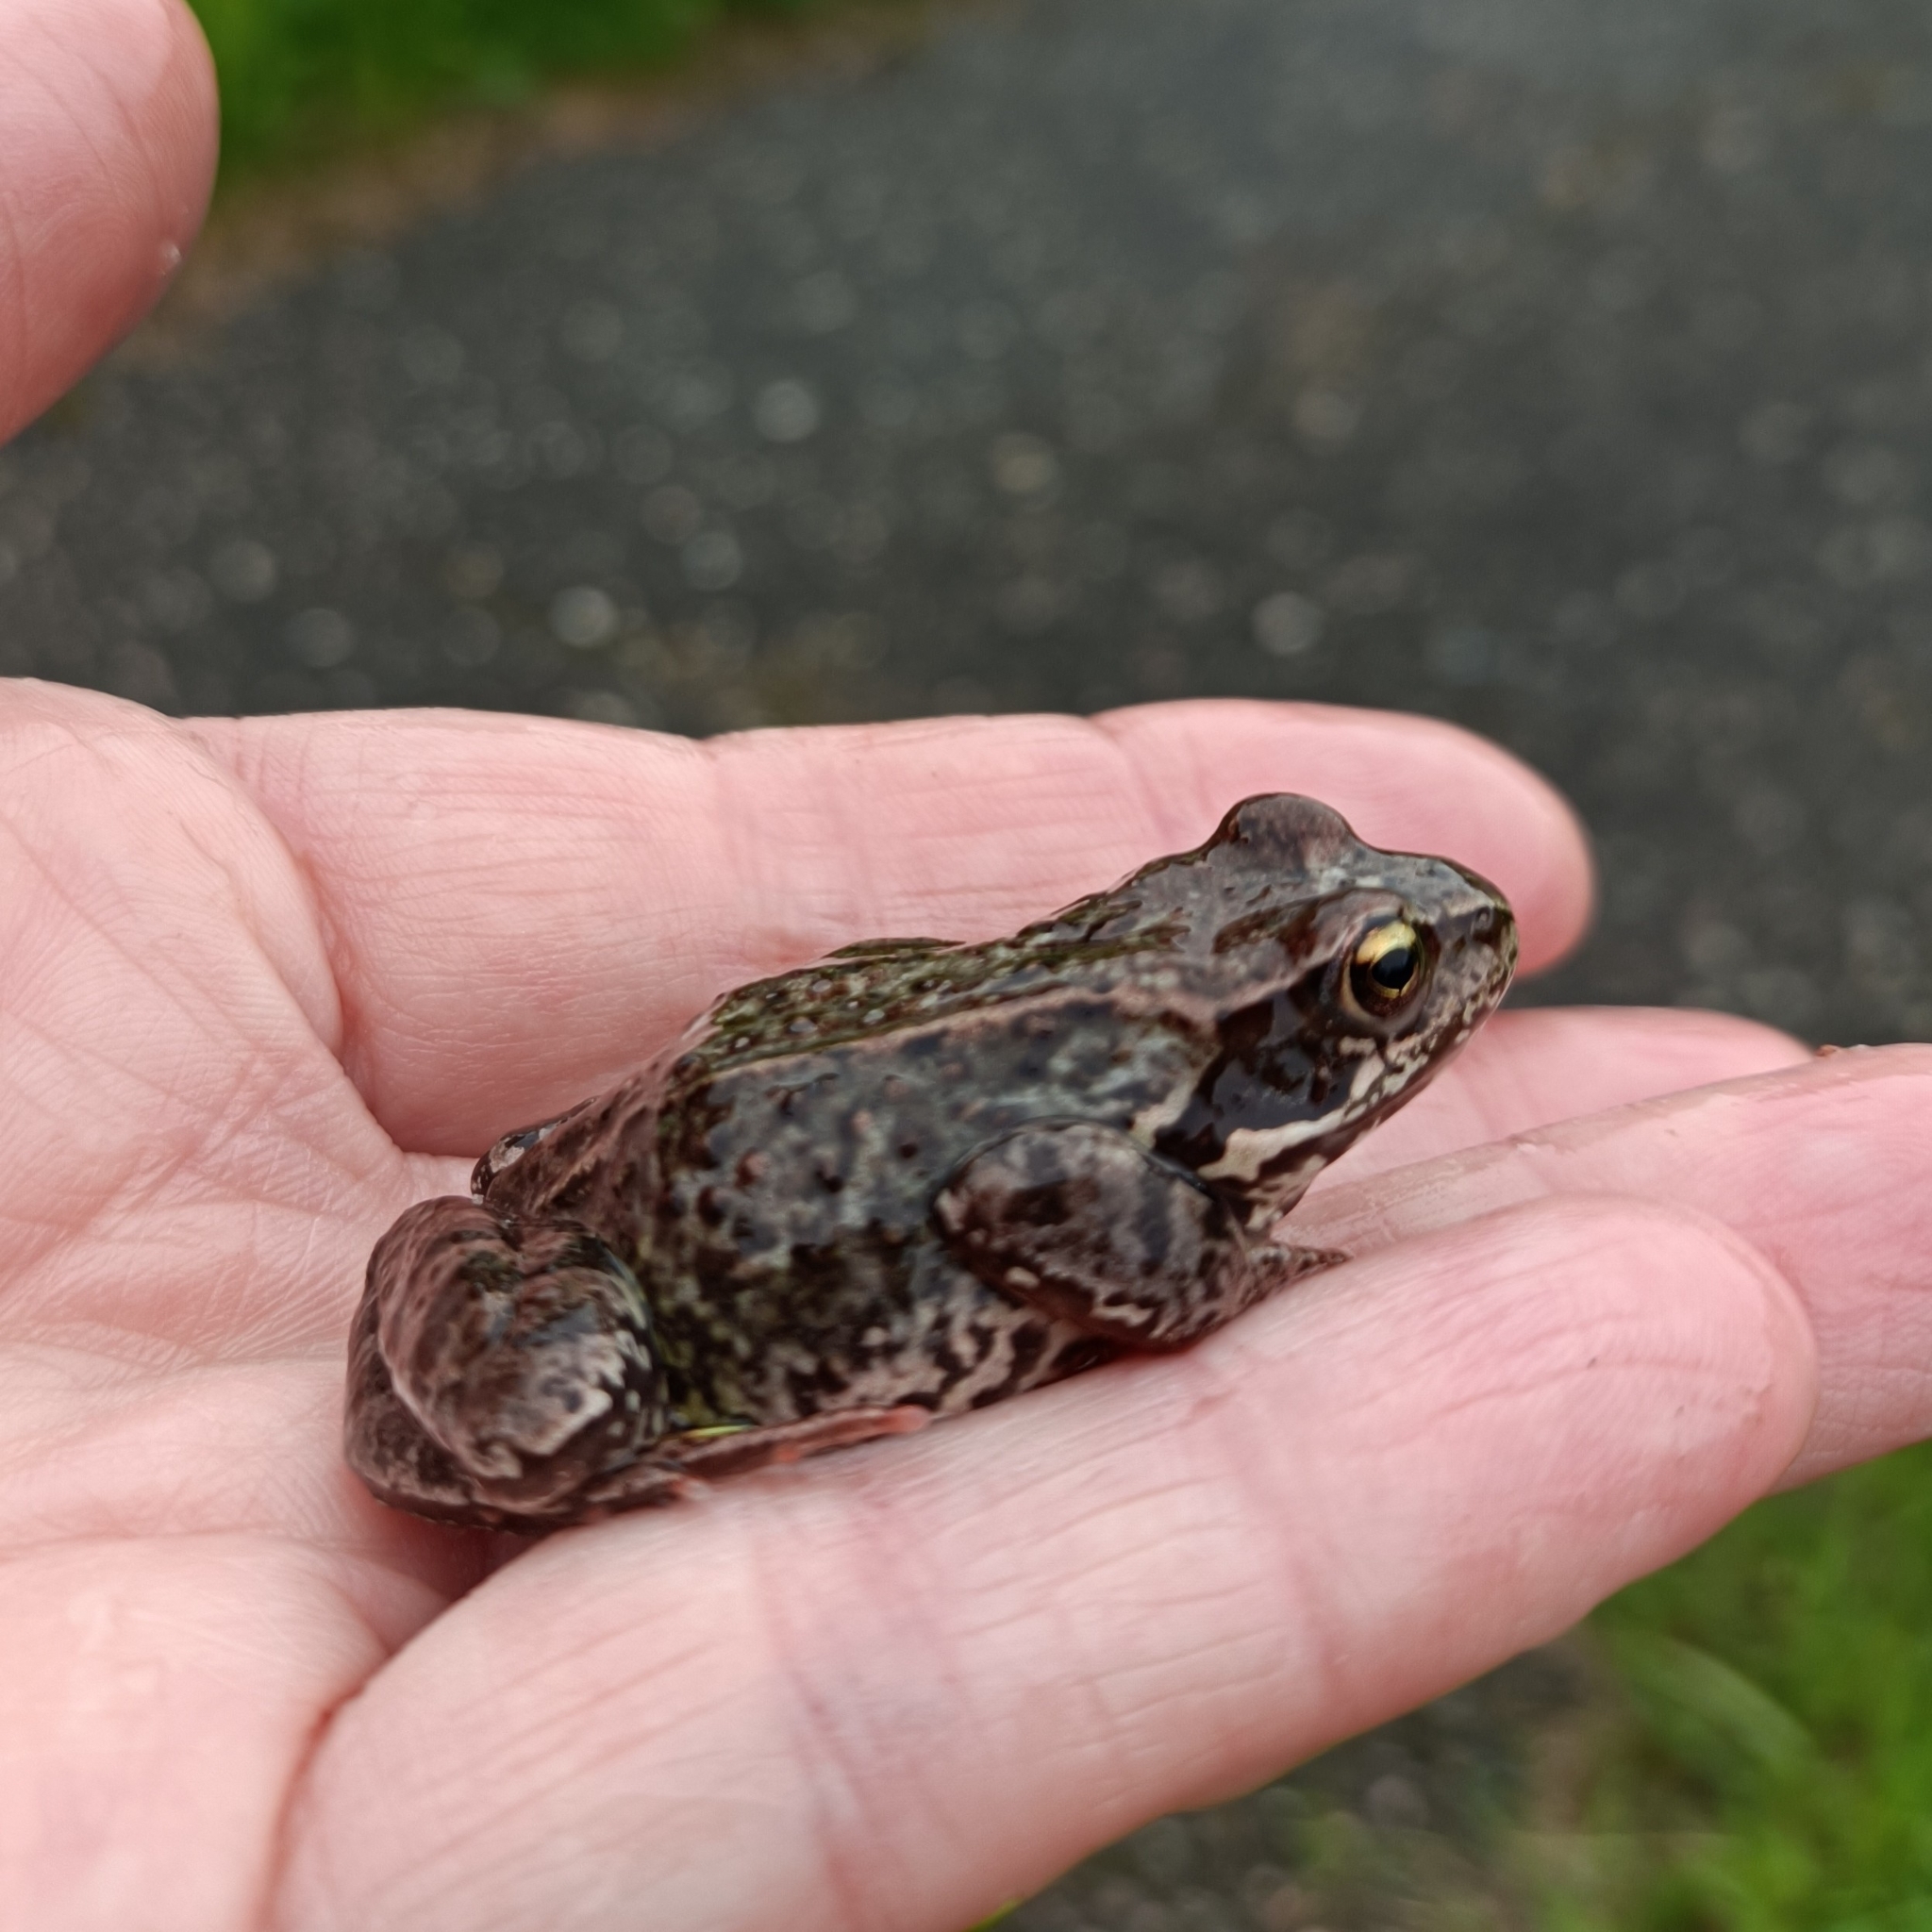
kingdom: Animalia
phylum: Chordata
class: Amphibia
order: Anura
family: Ranidae
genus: Rana
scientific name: Rana temporaria
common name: Common frog
